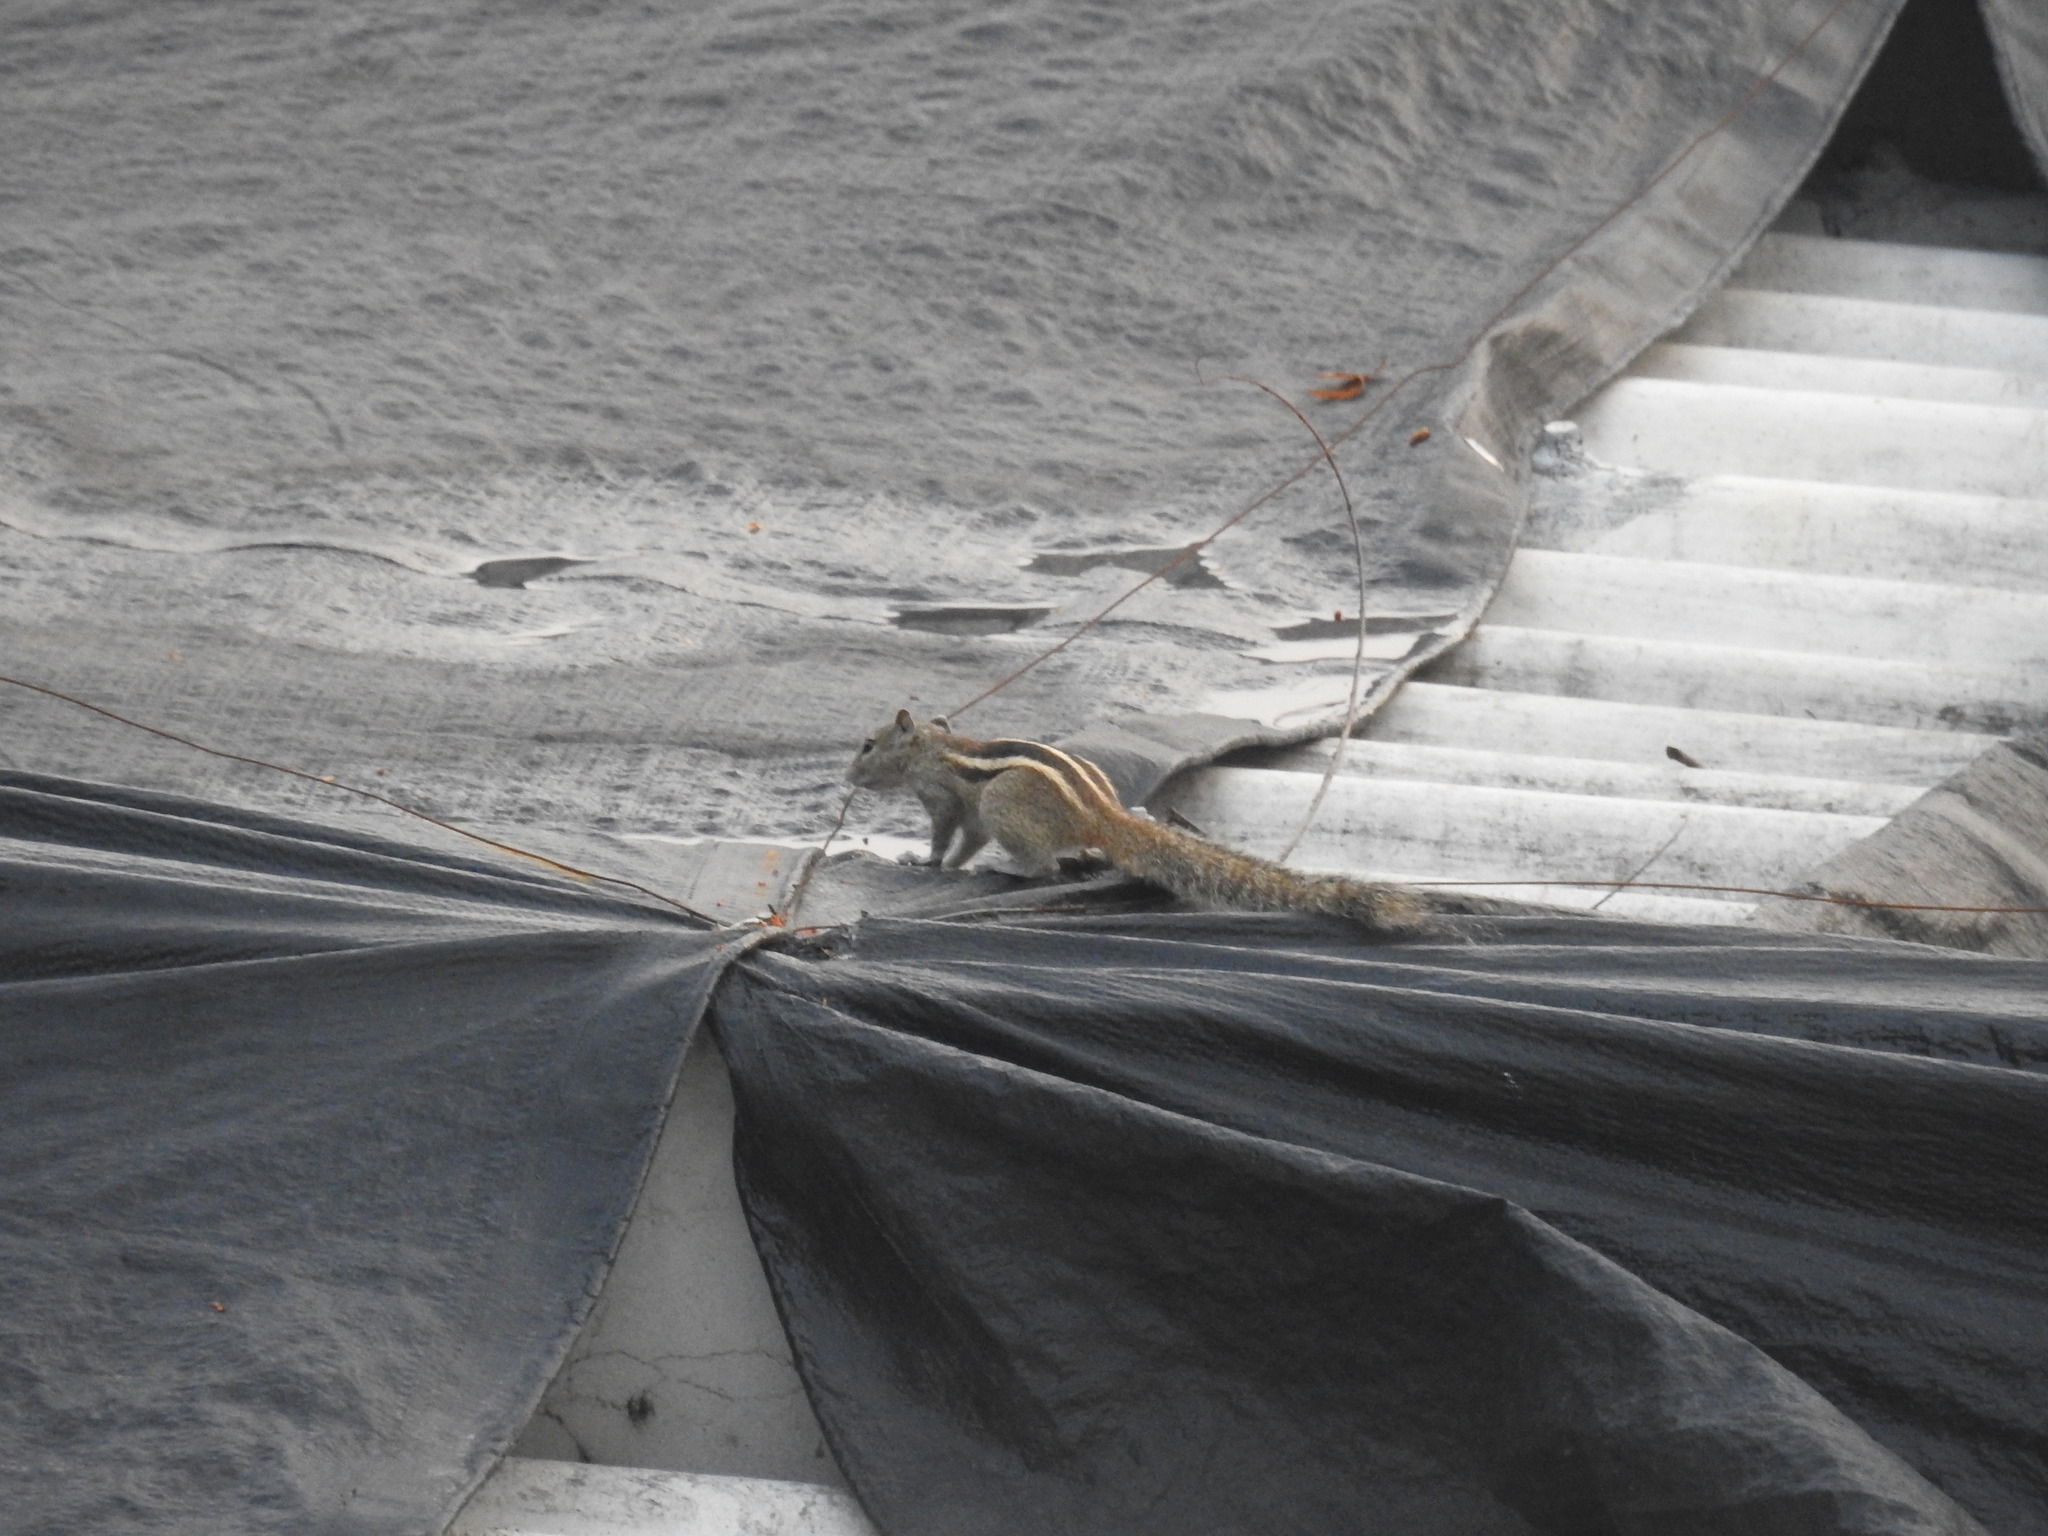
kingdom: Animalia
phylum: Chordata
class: Mammalia
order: Rodentia
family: Sciuridae
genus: Funambulus
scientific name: Funambulus palmarum
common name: Indian palm squirrel
